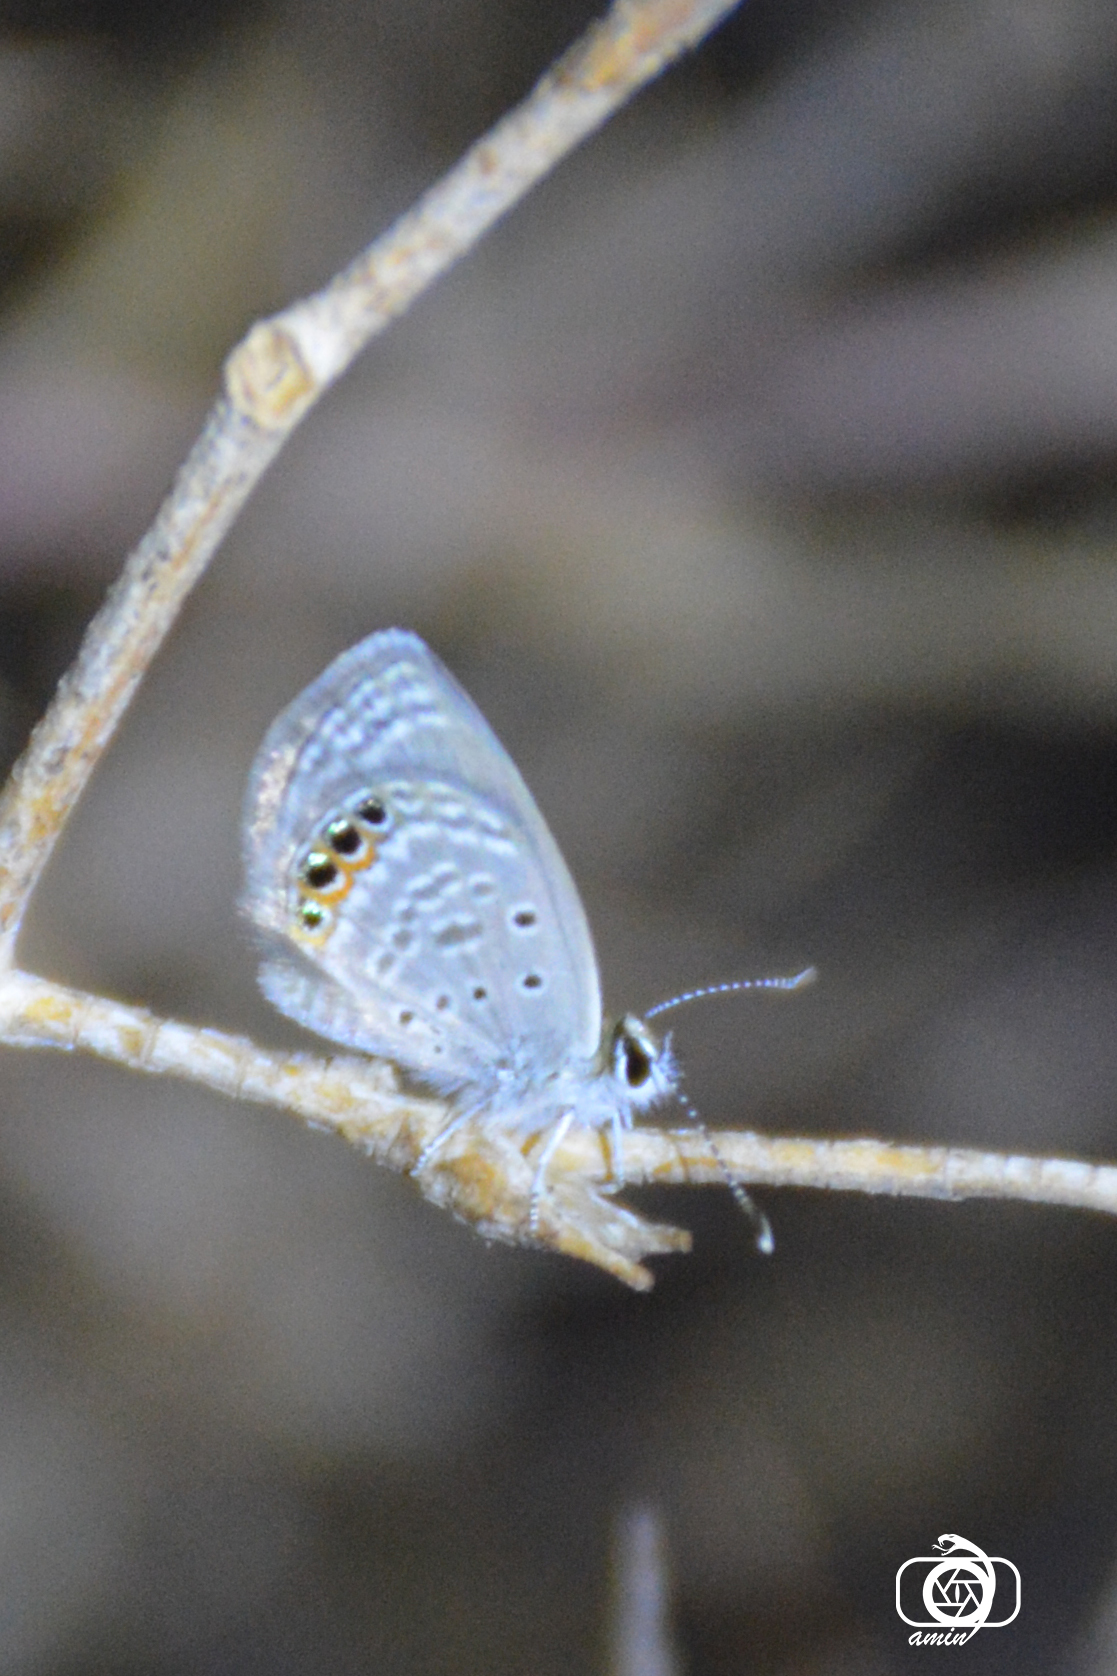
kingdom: Animalia
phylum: Arthropoda
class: Insecta
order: Lepidoptera
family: Lycaenidae
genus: Freyeria
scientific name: Freyeria trochylus
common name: Grass jewel
